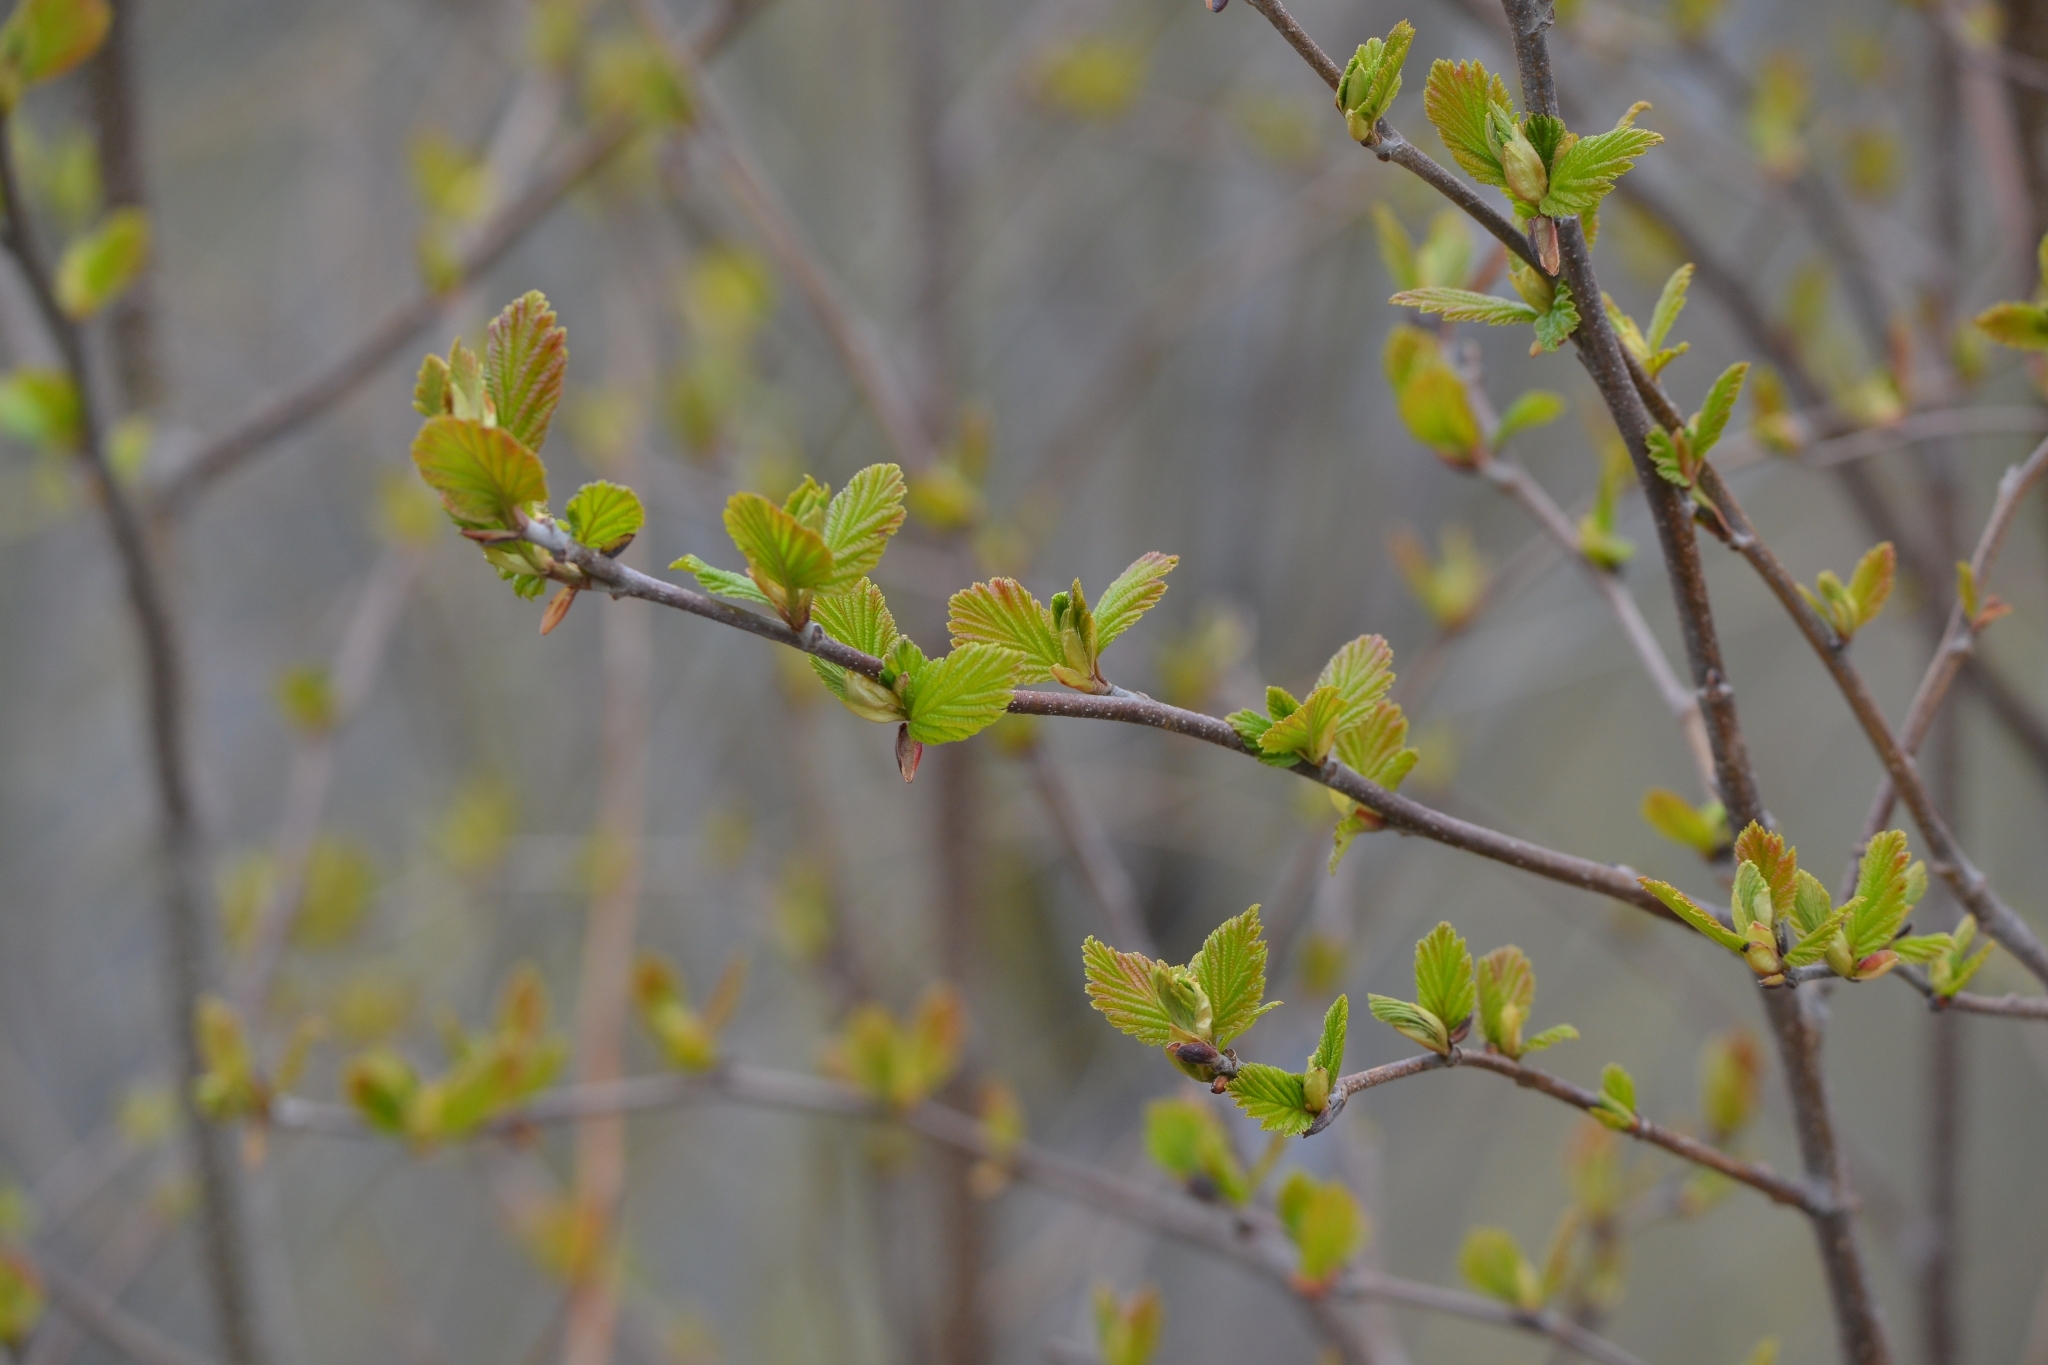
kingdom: Plantae
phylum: Tracheophyta
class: Magnoliopsida
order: Fagales
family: Betulaceae
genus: Alnus
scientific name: Alnus hirsuta
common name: Manchurian alder
